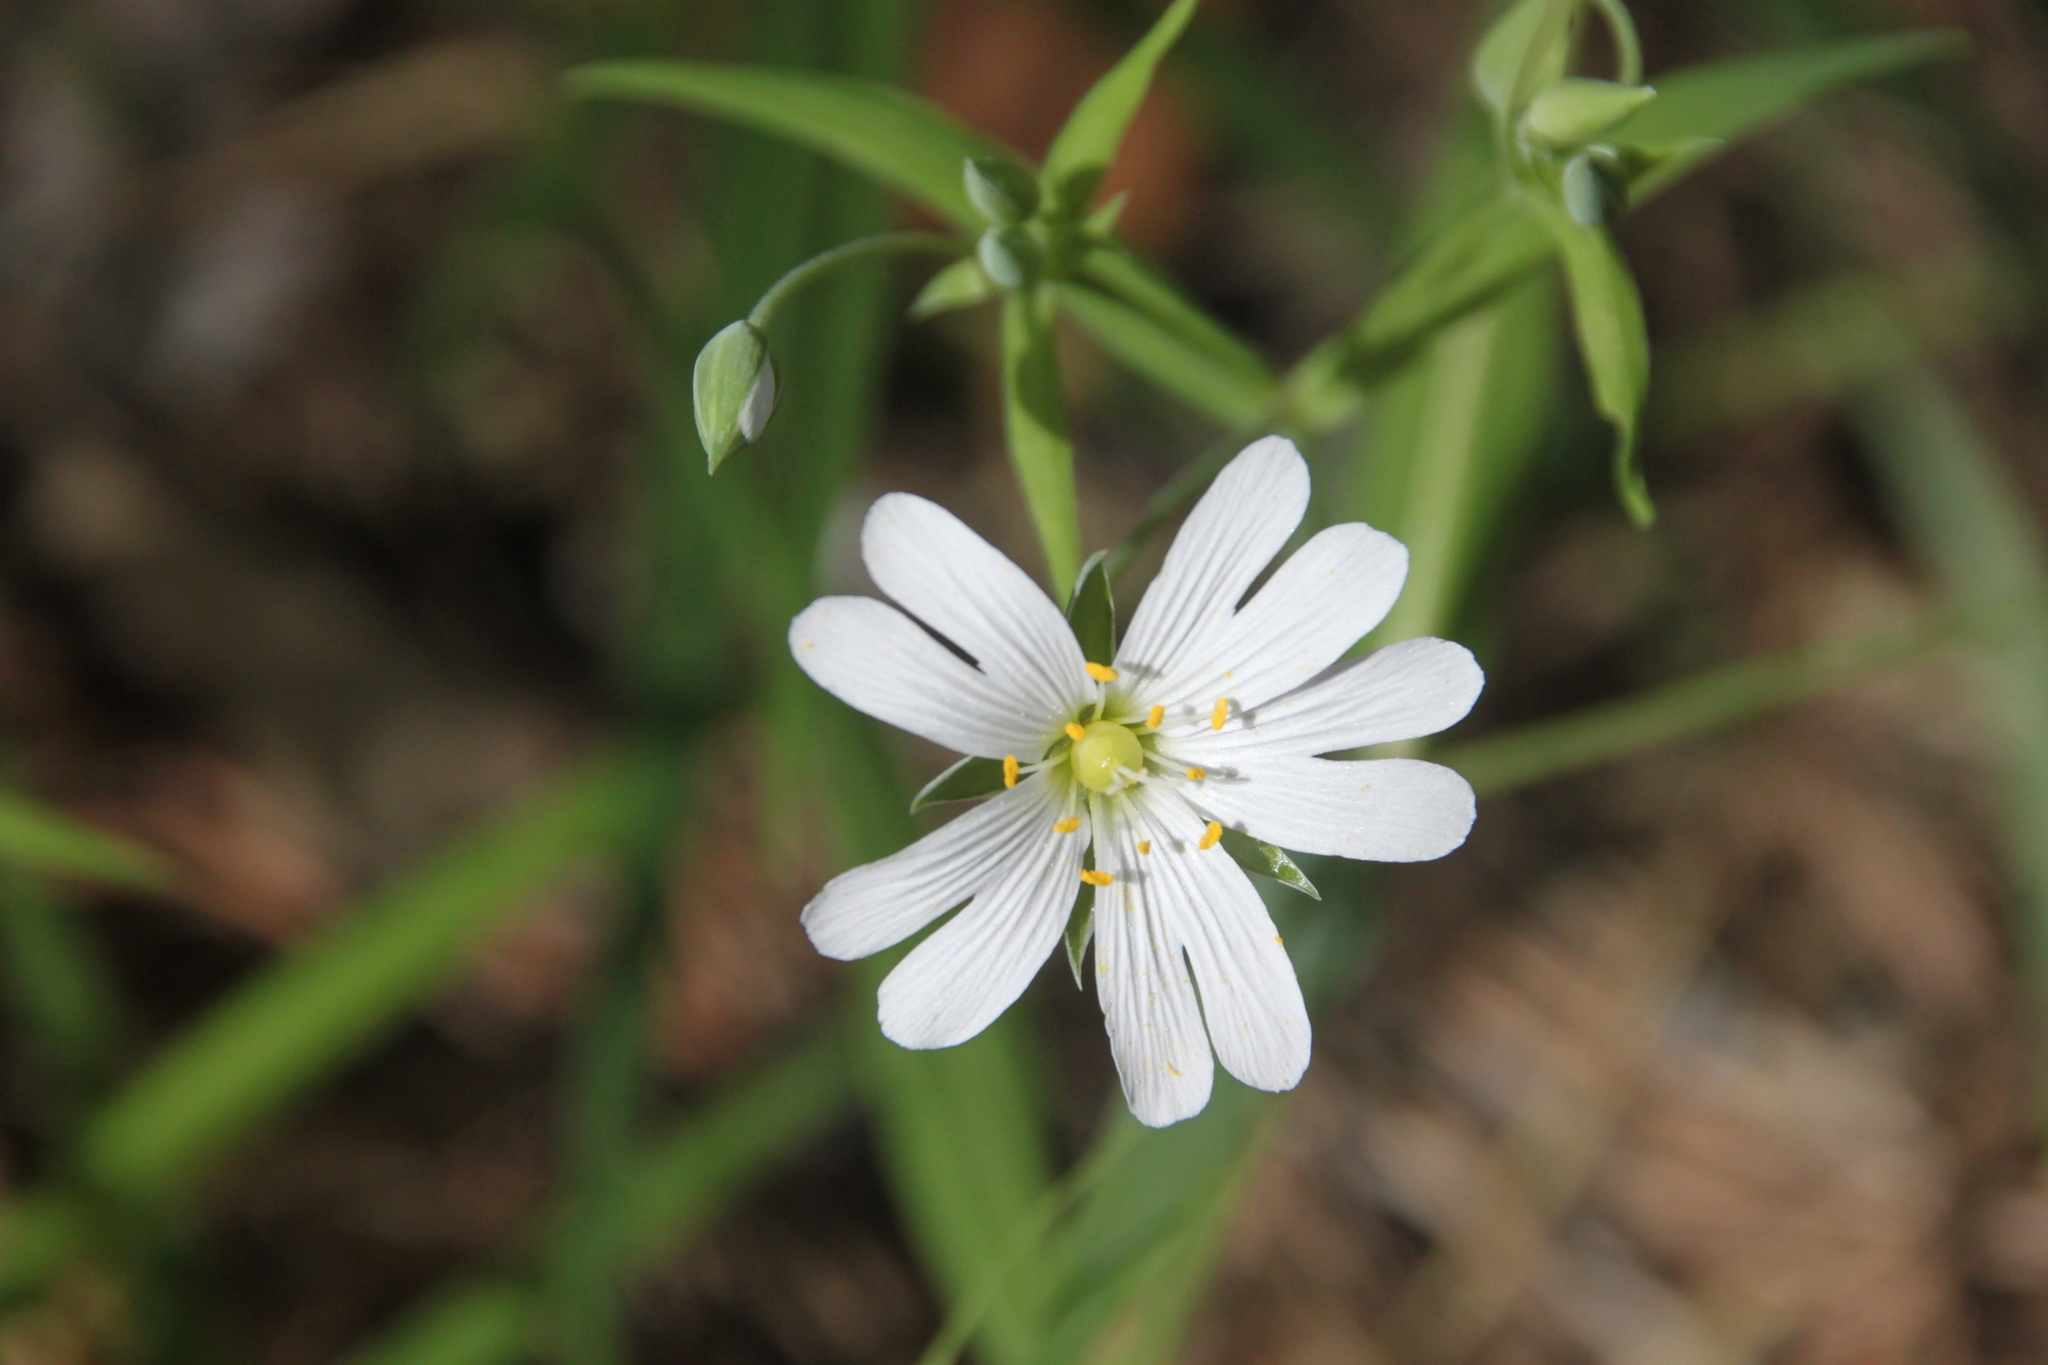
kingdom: Plantae
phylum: Tracheophyta
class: Magnoliopsida
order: Caryophyllales
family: Caryophyllaceae
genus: Rabelera
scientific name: Rabelera holostea
